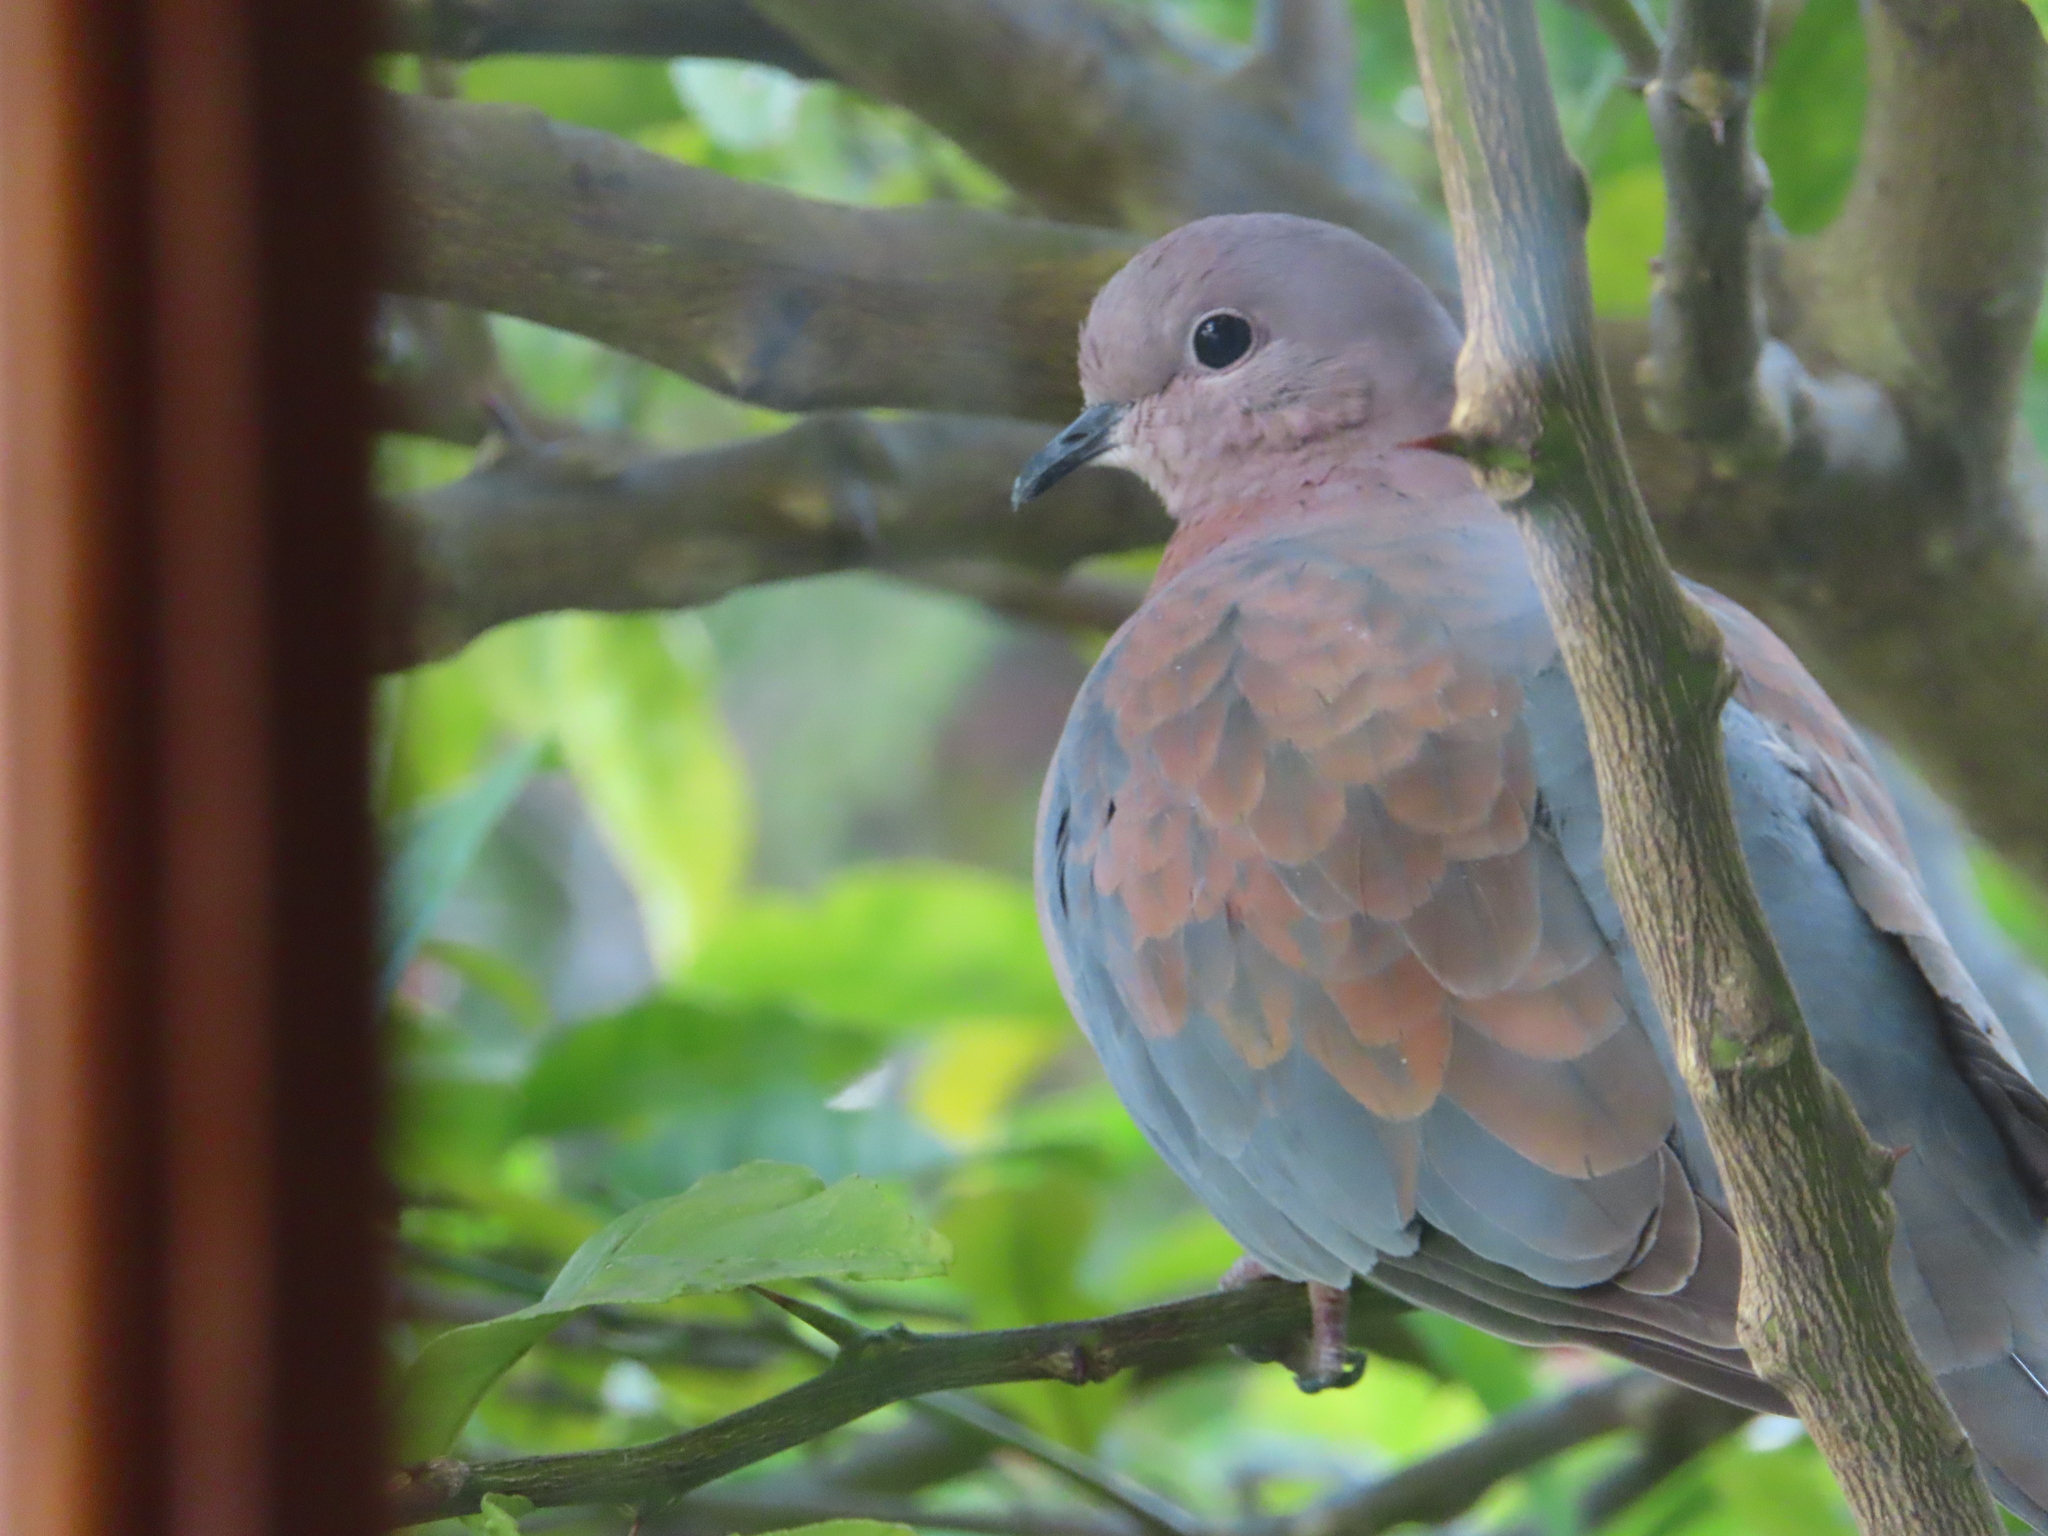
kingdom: Animalia
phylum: Chordata
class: Aves
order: Columbiformes
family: Columbidae
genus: Spilopelia
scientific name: Spilopelia senegalensis
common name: Laughing dove
